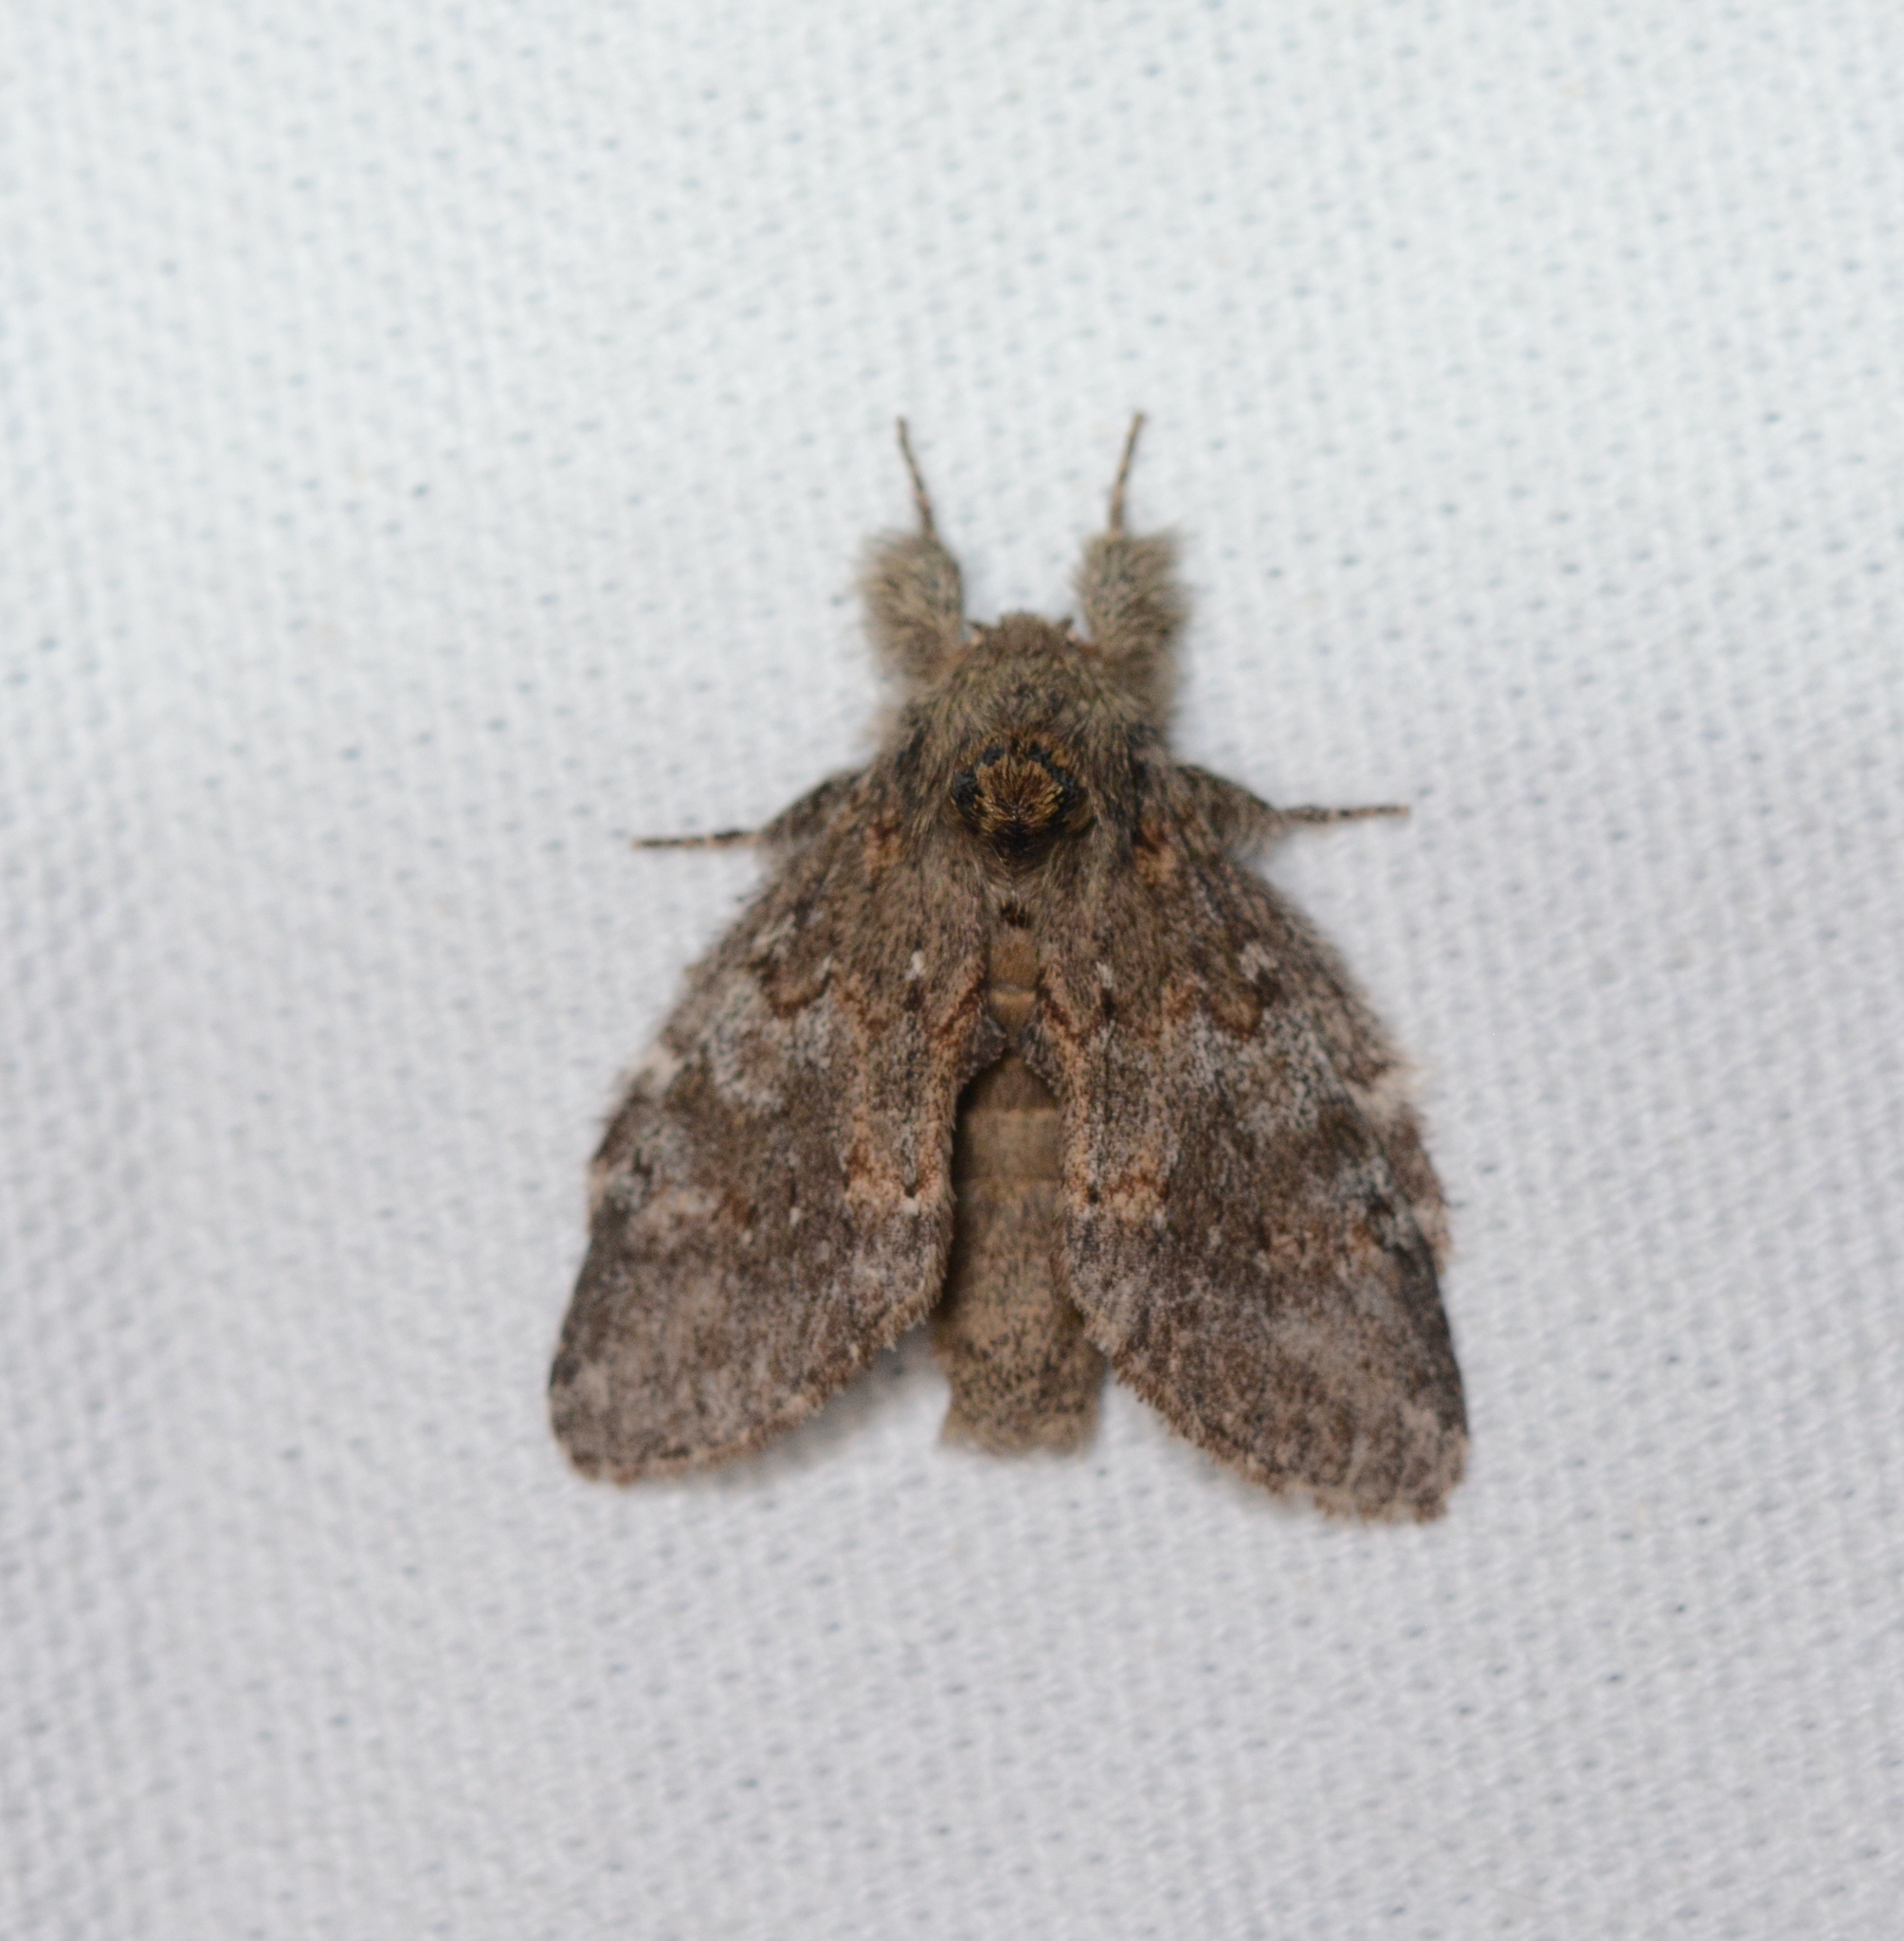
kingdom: Animalia
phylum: Arthropoda
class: Insecta
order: Lepidoptera
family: Notodontidae
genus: Peridea
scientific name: Peridea angulosa
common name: Angulose prominent
